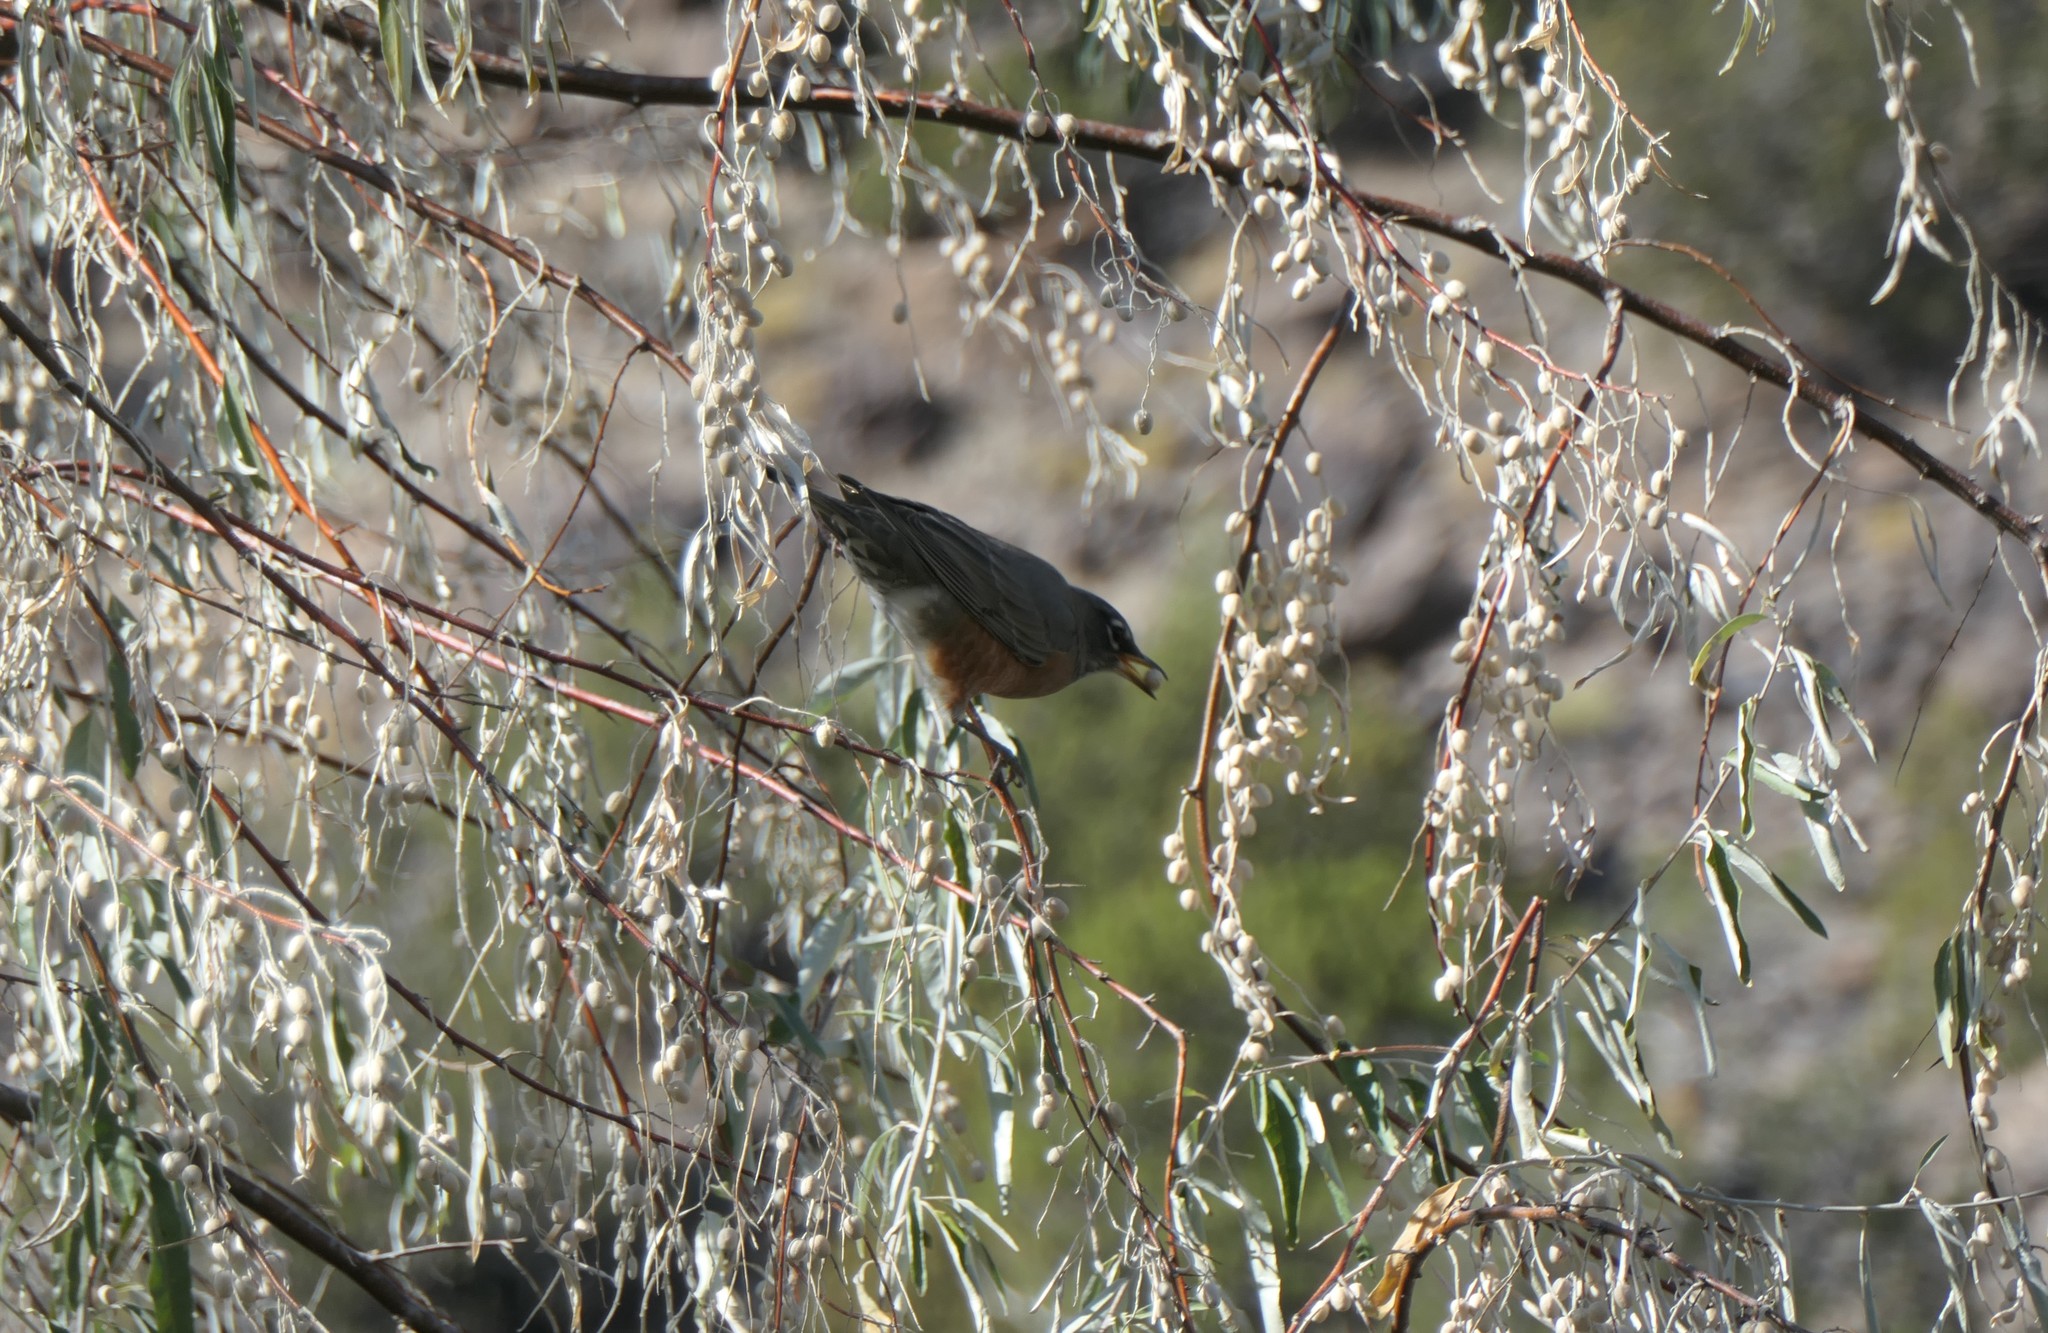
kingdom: Animalia
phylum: Chordata
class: Aves
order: Passeriformes
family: Turdidae
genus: Turdus
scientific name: Turdus migratorius
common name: American robin
